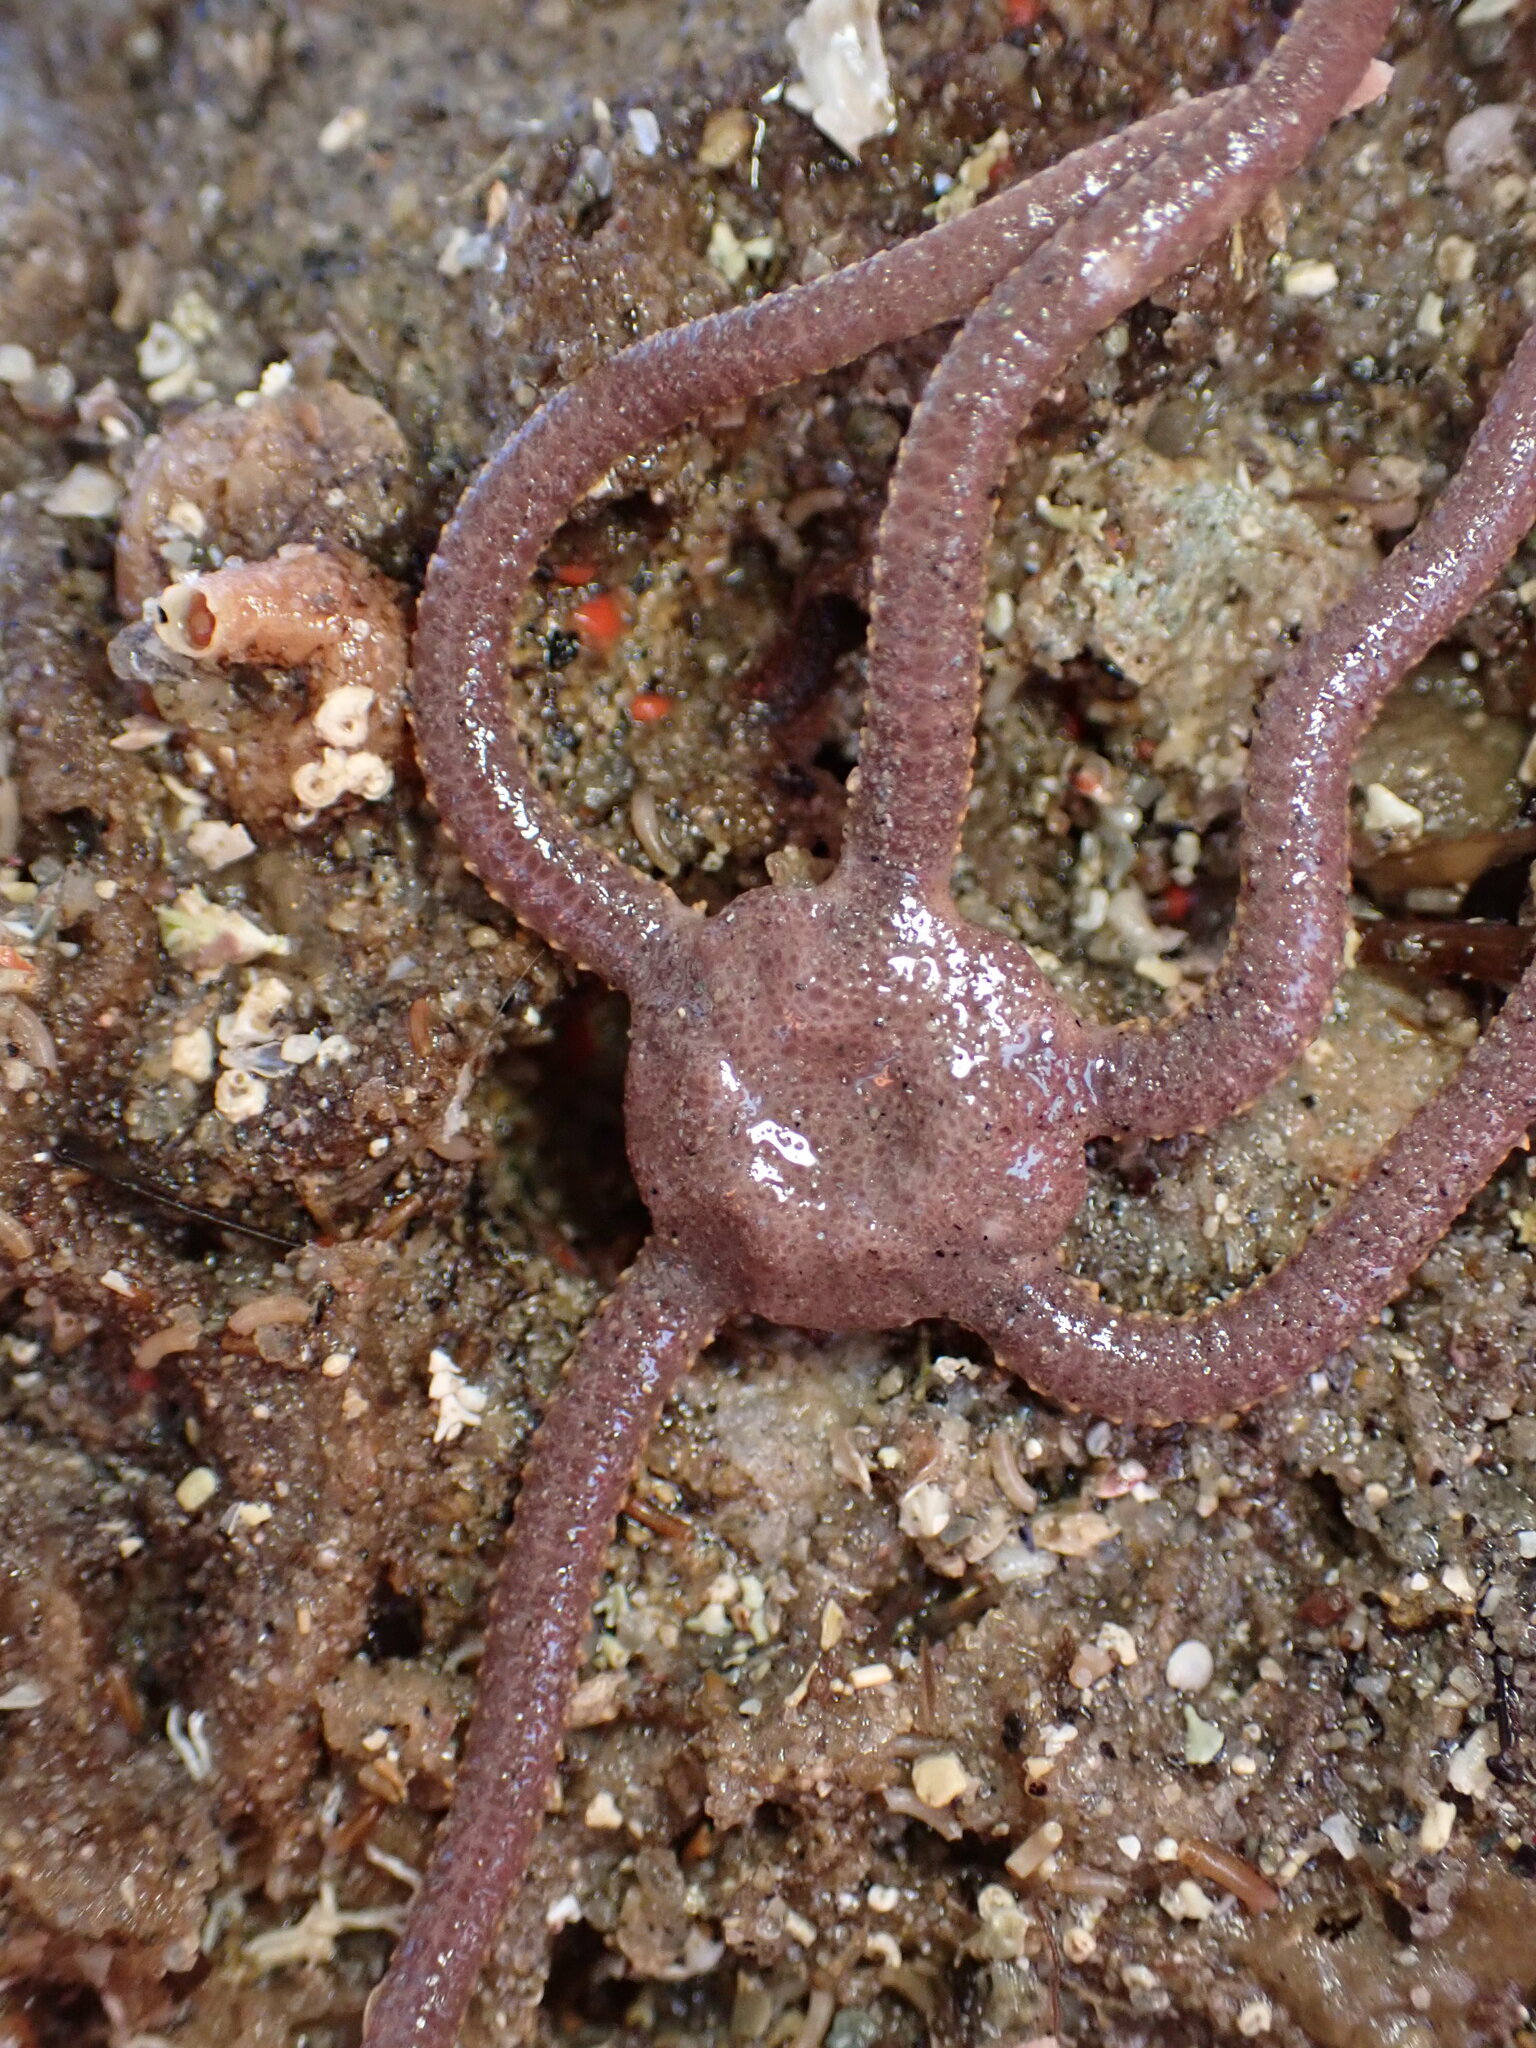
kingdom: Animalia
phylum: Echinodermata
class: Ophiuroidea
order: Amphilepidida
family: Hemieuryalidae
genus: Ophioplocus
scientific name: Ophioplocus esmarki
